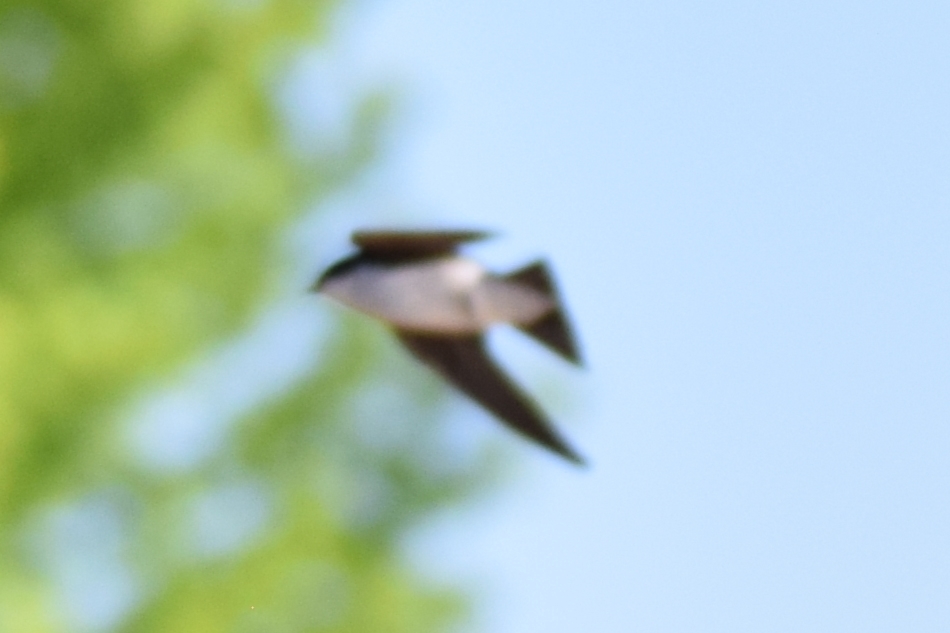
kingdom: Animalia
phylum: Chordata
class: Aves
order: Passeriformes
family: Hirundinidae
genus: Tachycineta
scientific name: Tachycineta bicolor
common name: Tree swallow
